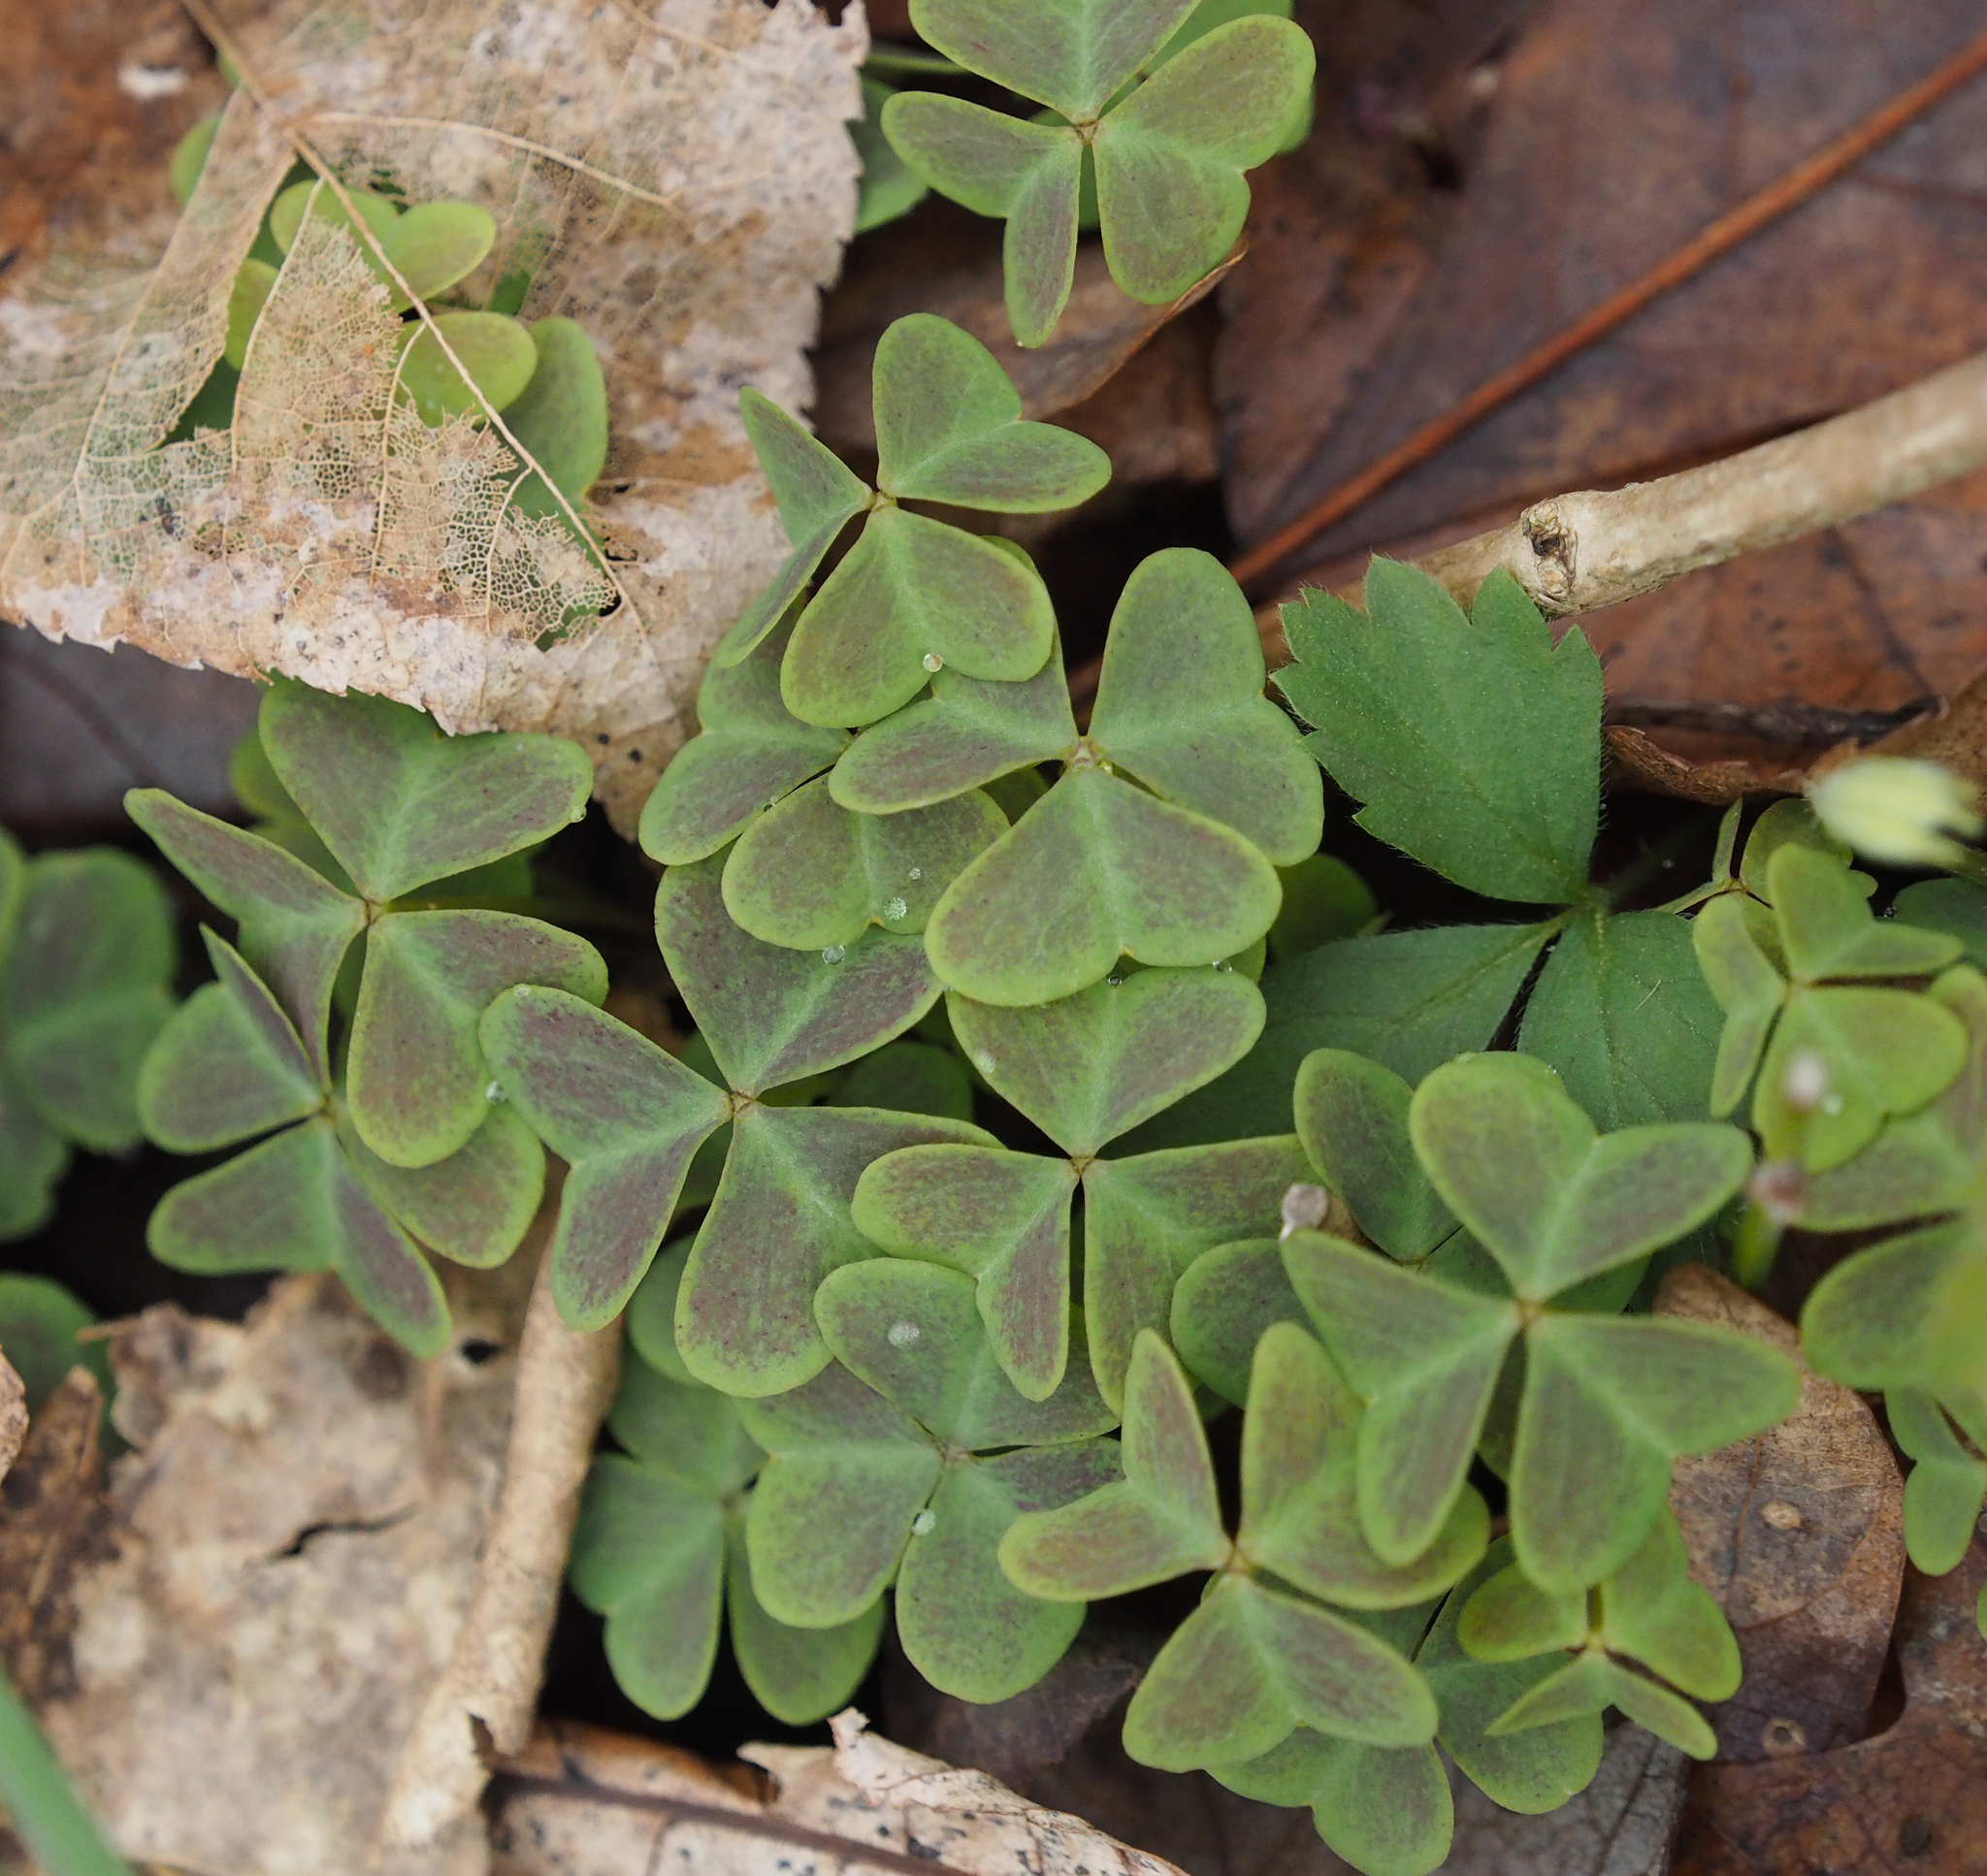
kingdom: Plantae
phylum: Tracheophyta
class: Magnoliopsida
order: Oxalidales
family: Oxalidaceae
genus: Oxalis
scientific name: Oxalis violacea
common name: Violet wood-sorrel
